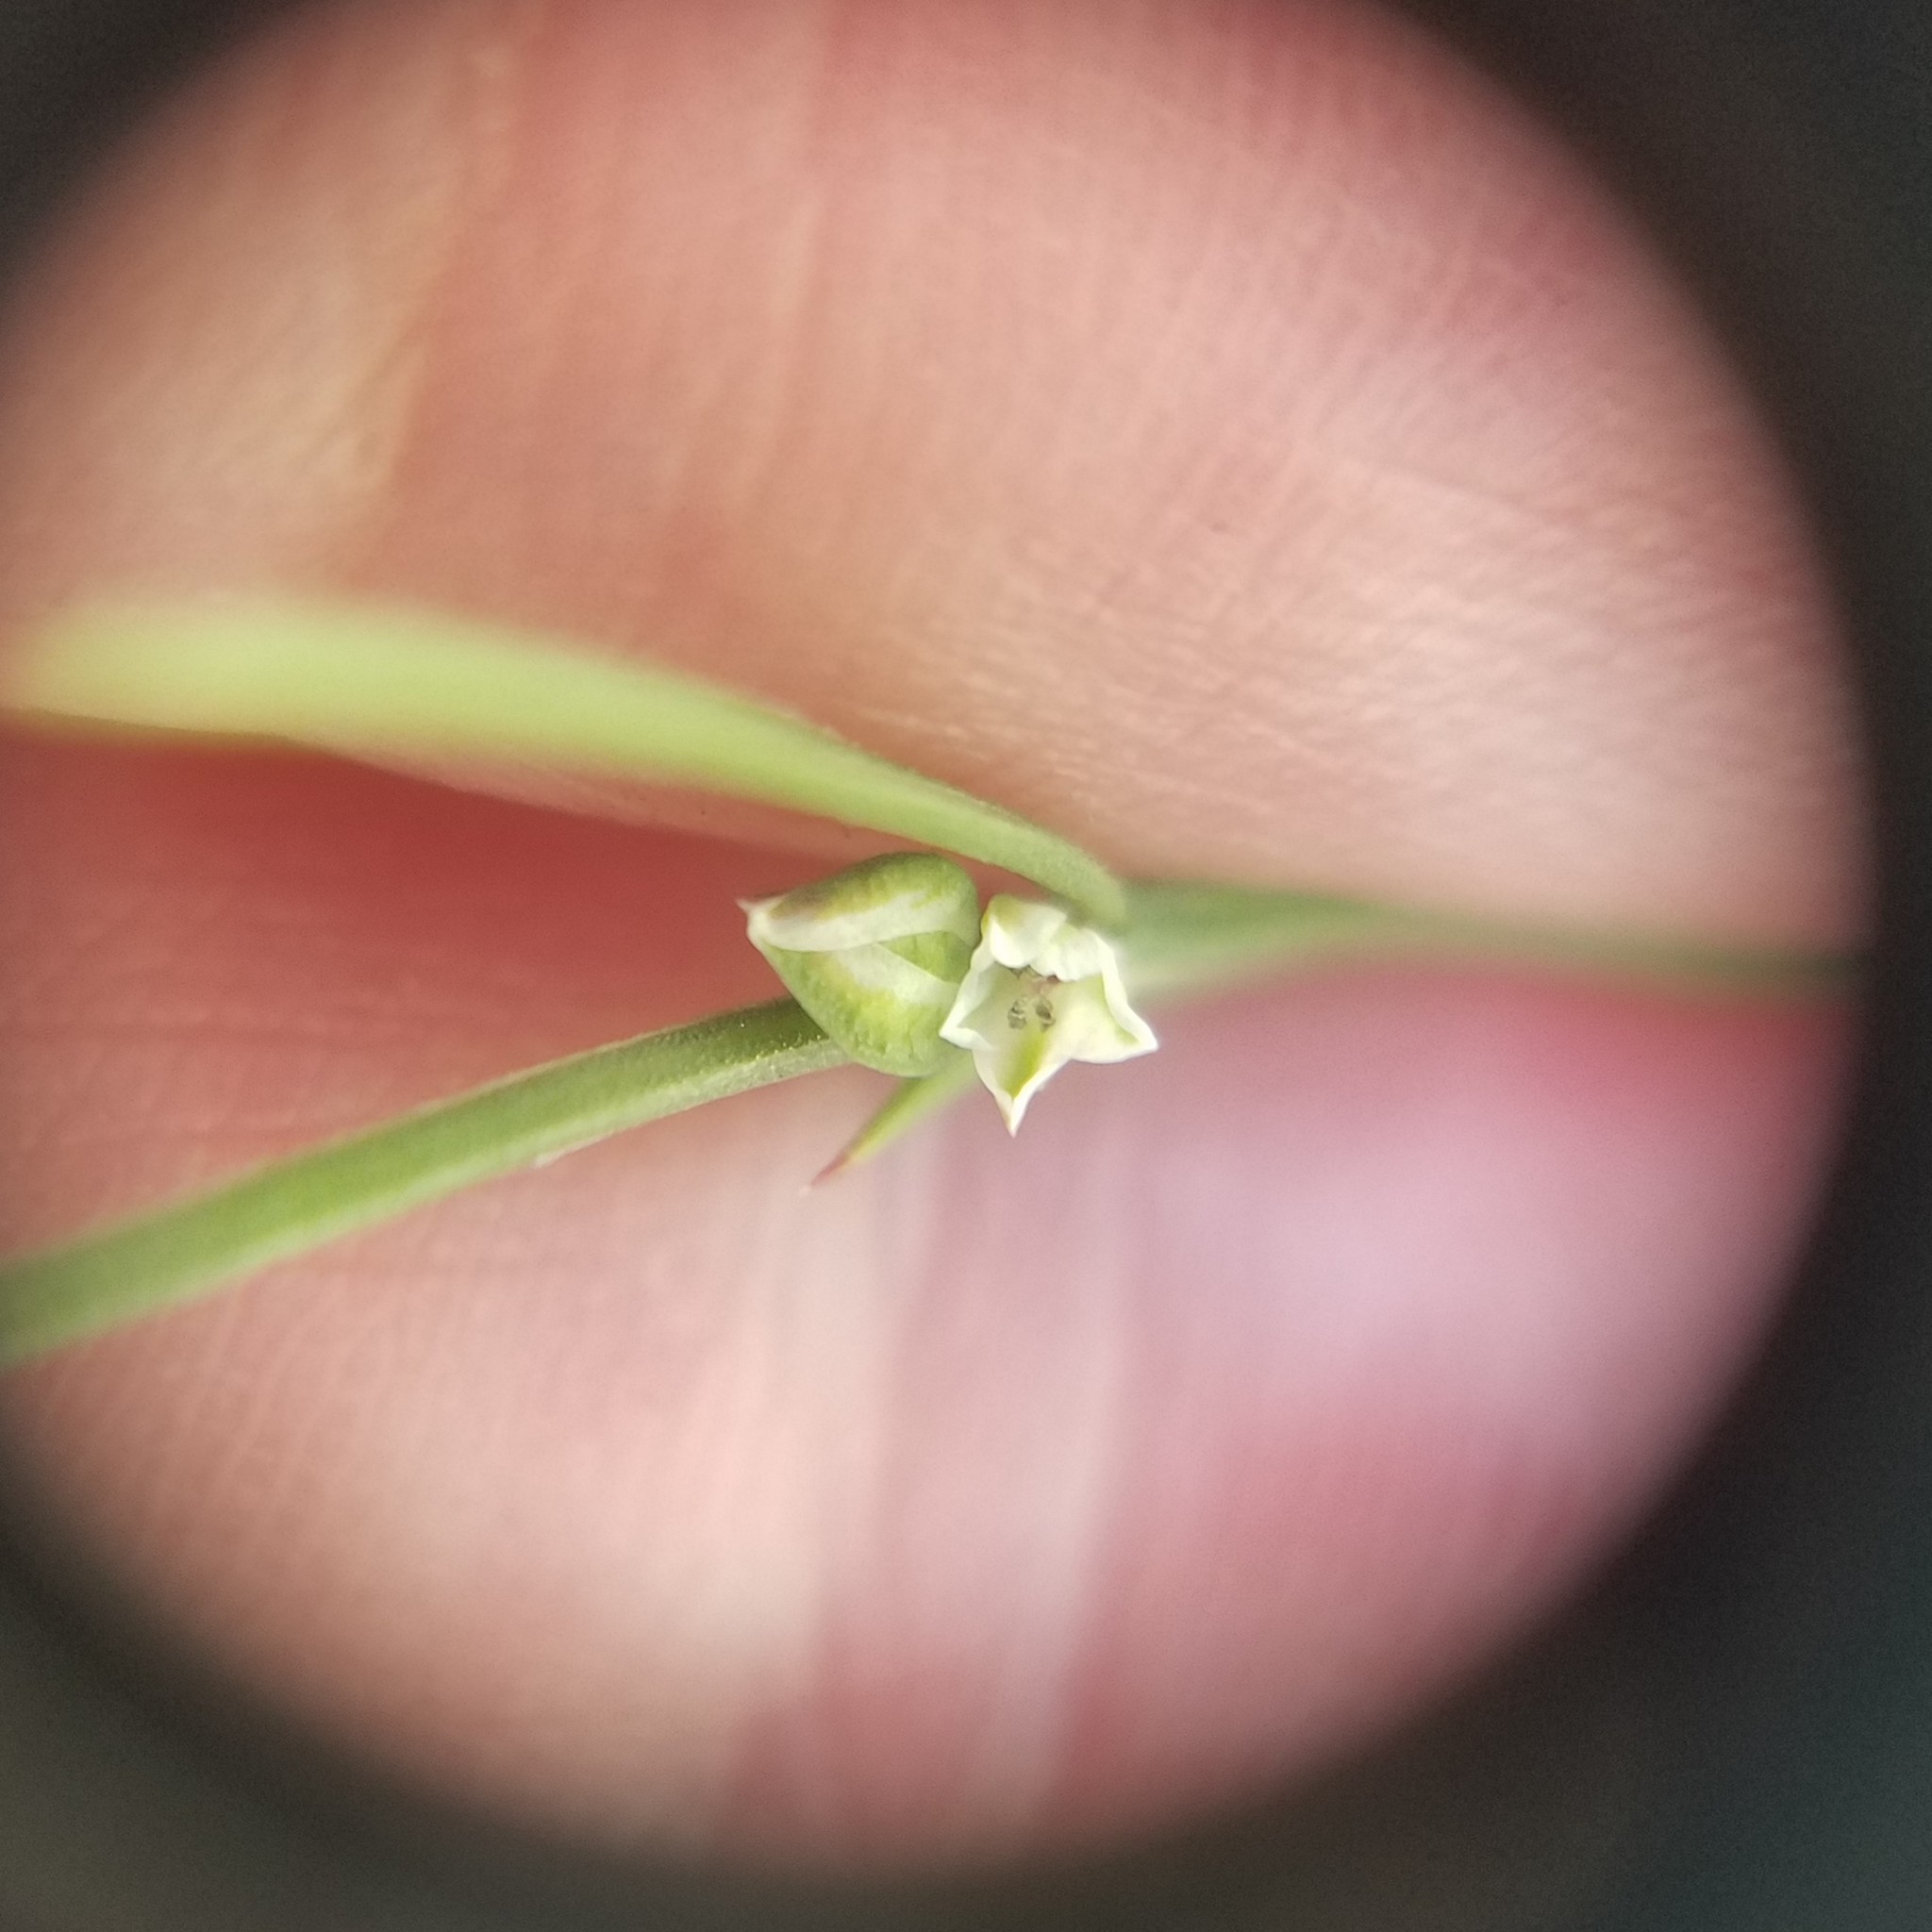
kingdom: Plantae
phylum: Tracheophyta
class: Magnoliopsida
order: Caryophyllales
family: Polygonaceae
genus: Polygonum
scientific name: Polygonum tenue
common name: Pleat-leaved knotweed
